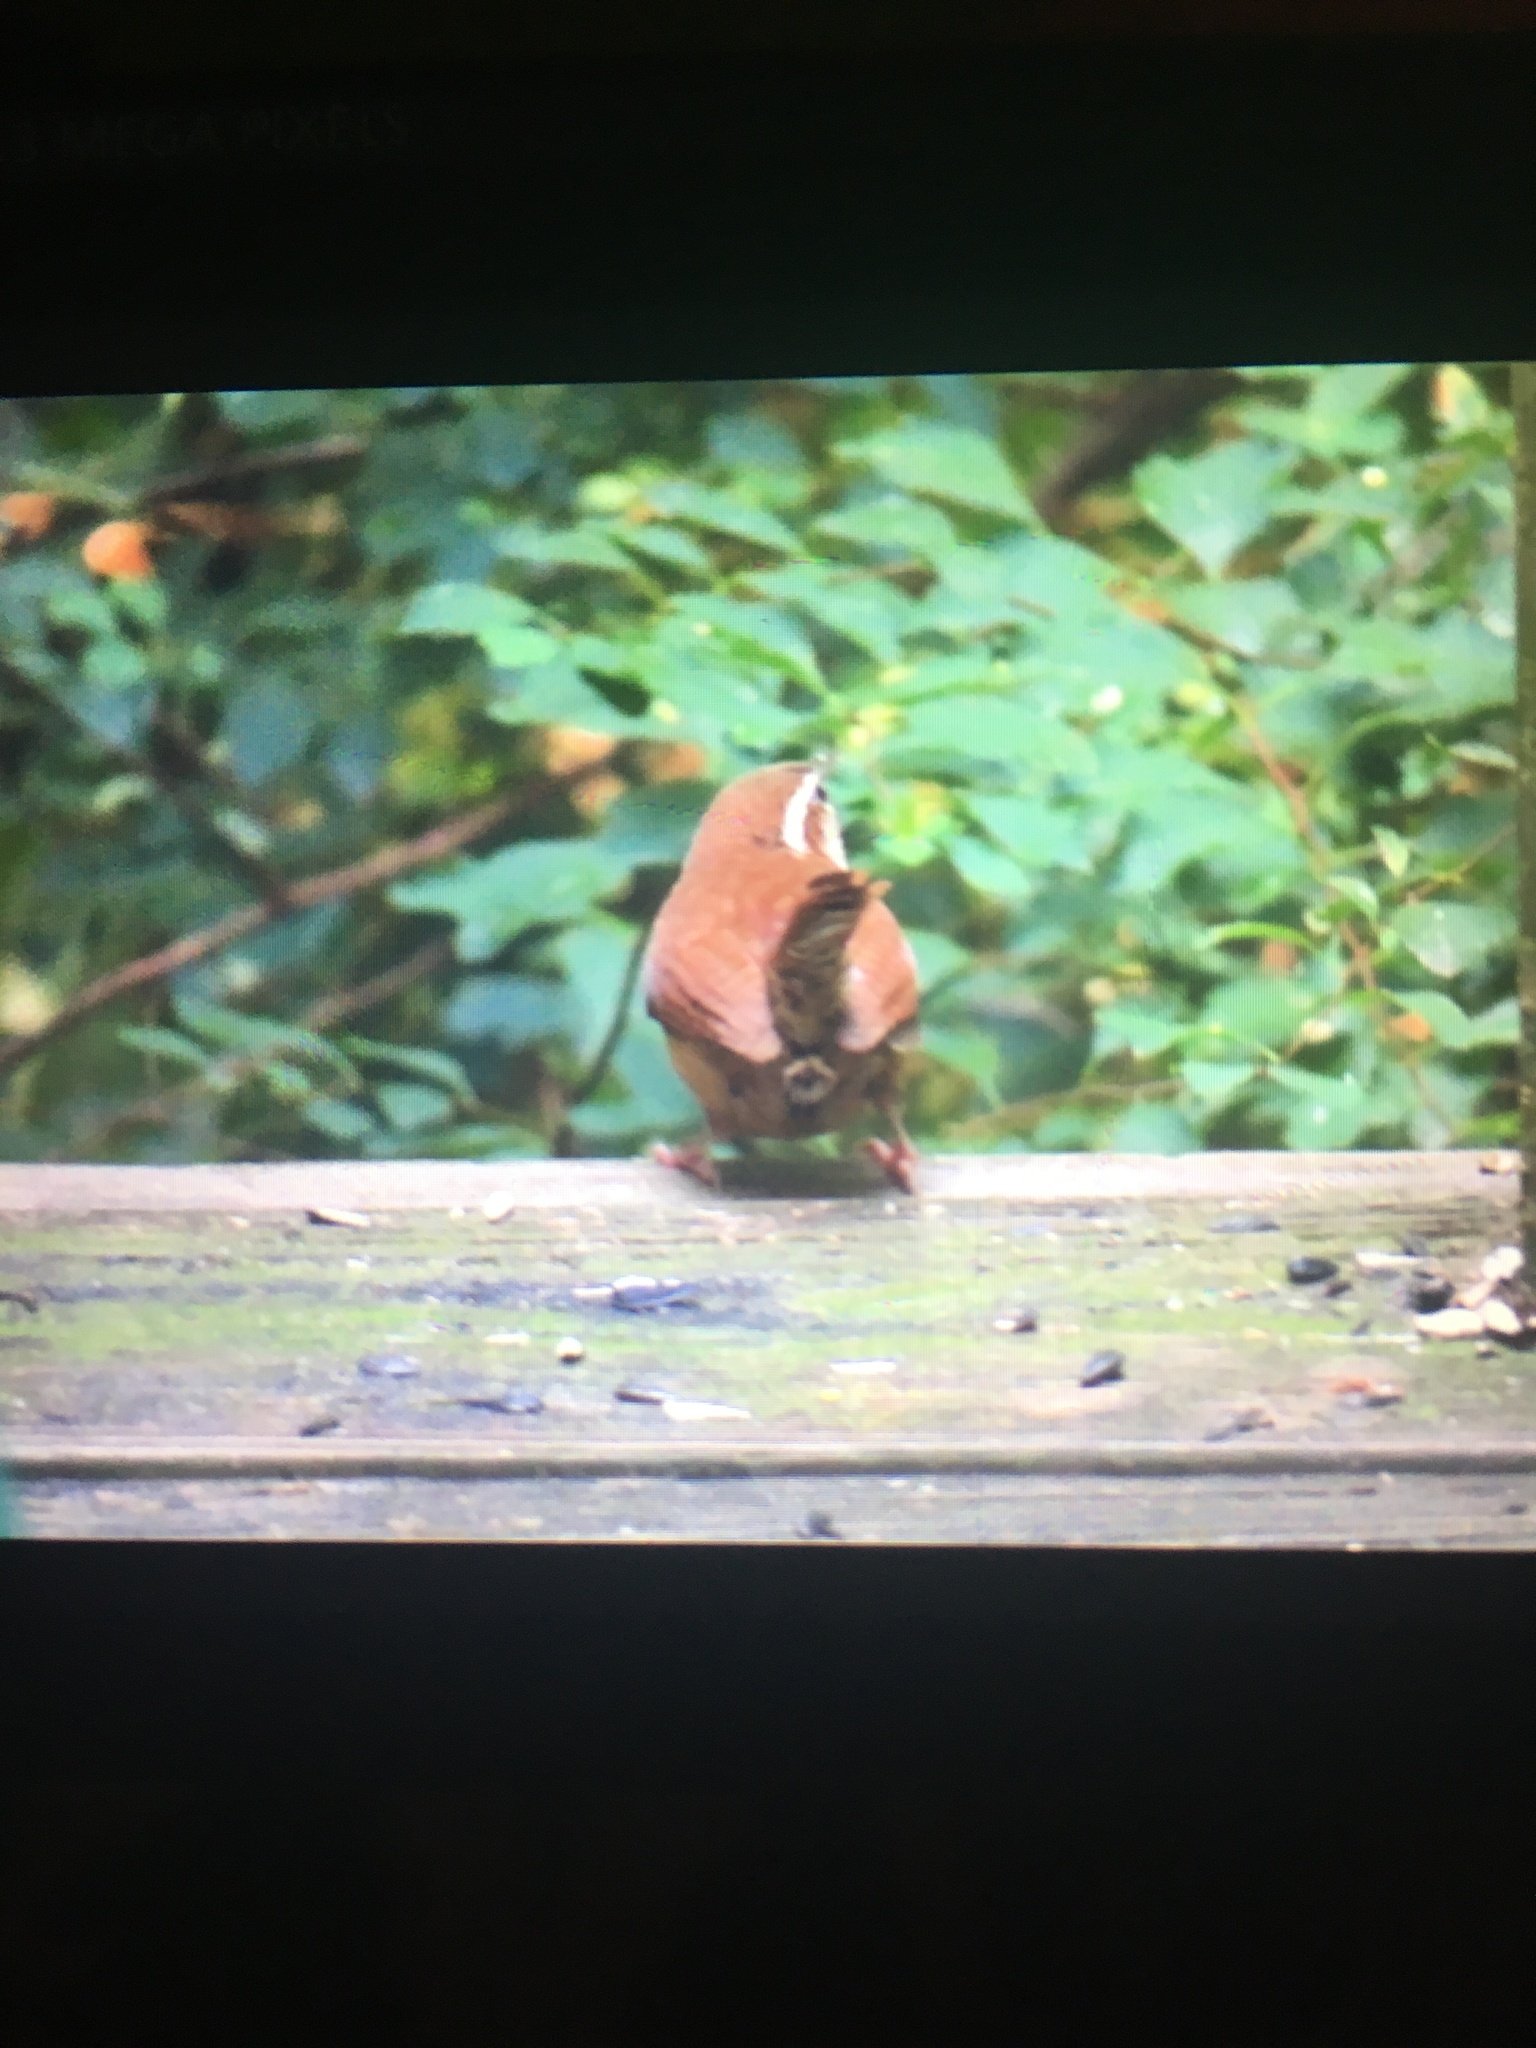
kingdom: Animalia
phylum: Chordata
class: Aves
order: Passeriformes
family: Troglodytidae
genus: Thryothorus
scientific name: Thryothorus ludovicianus
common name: Carolina wren
